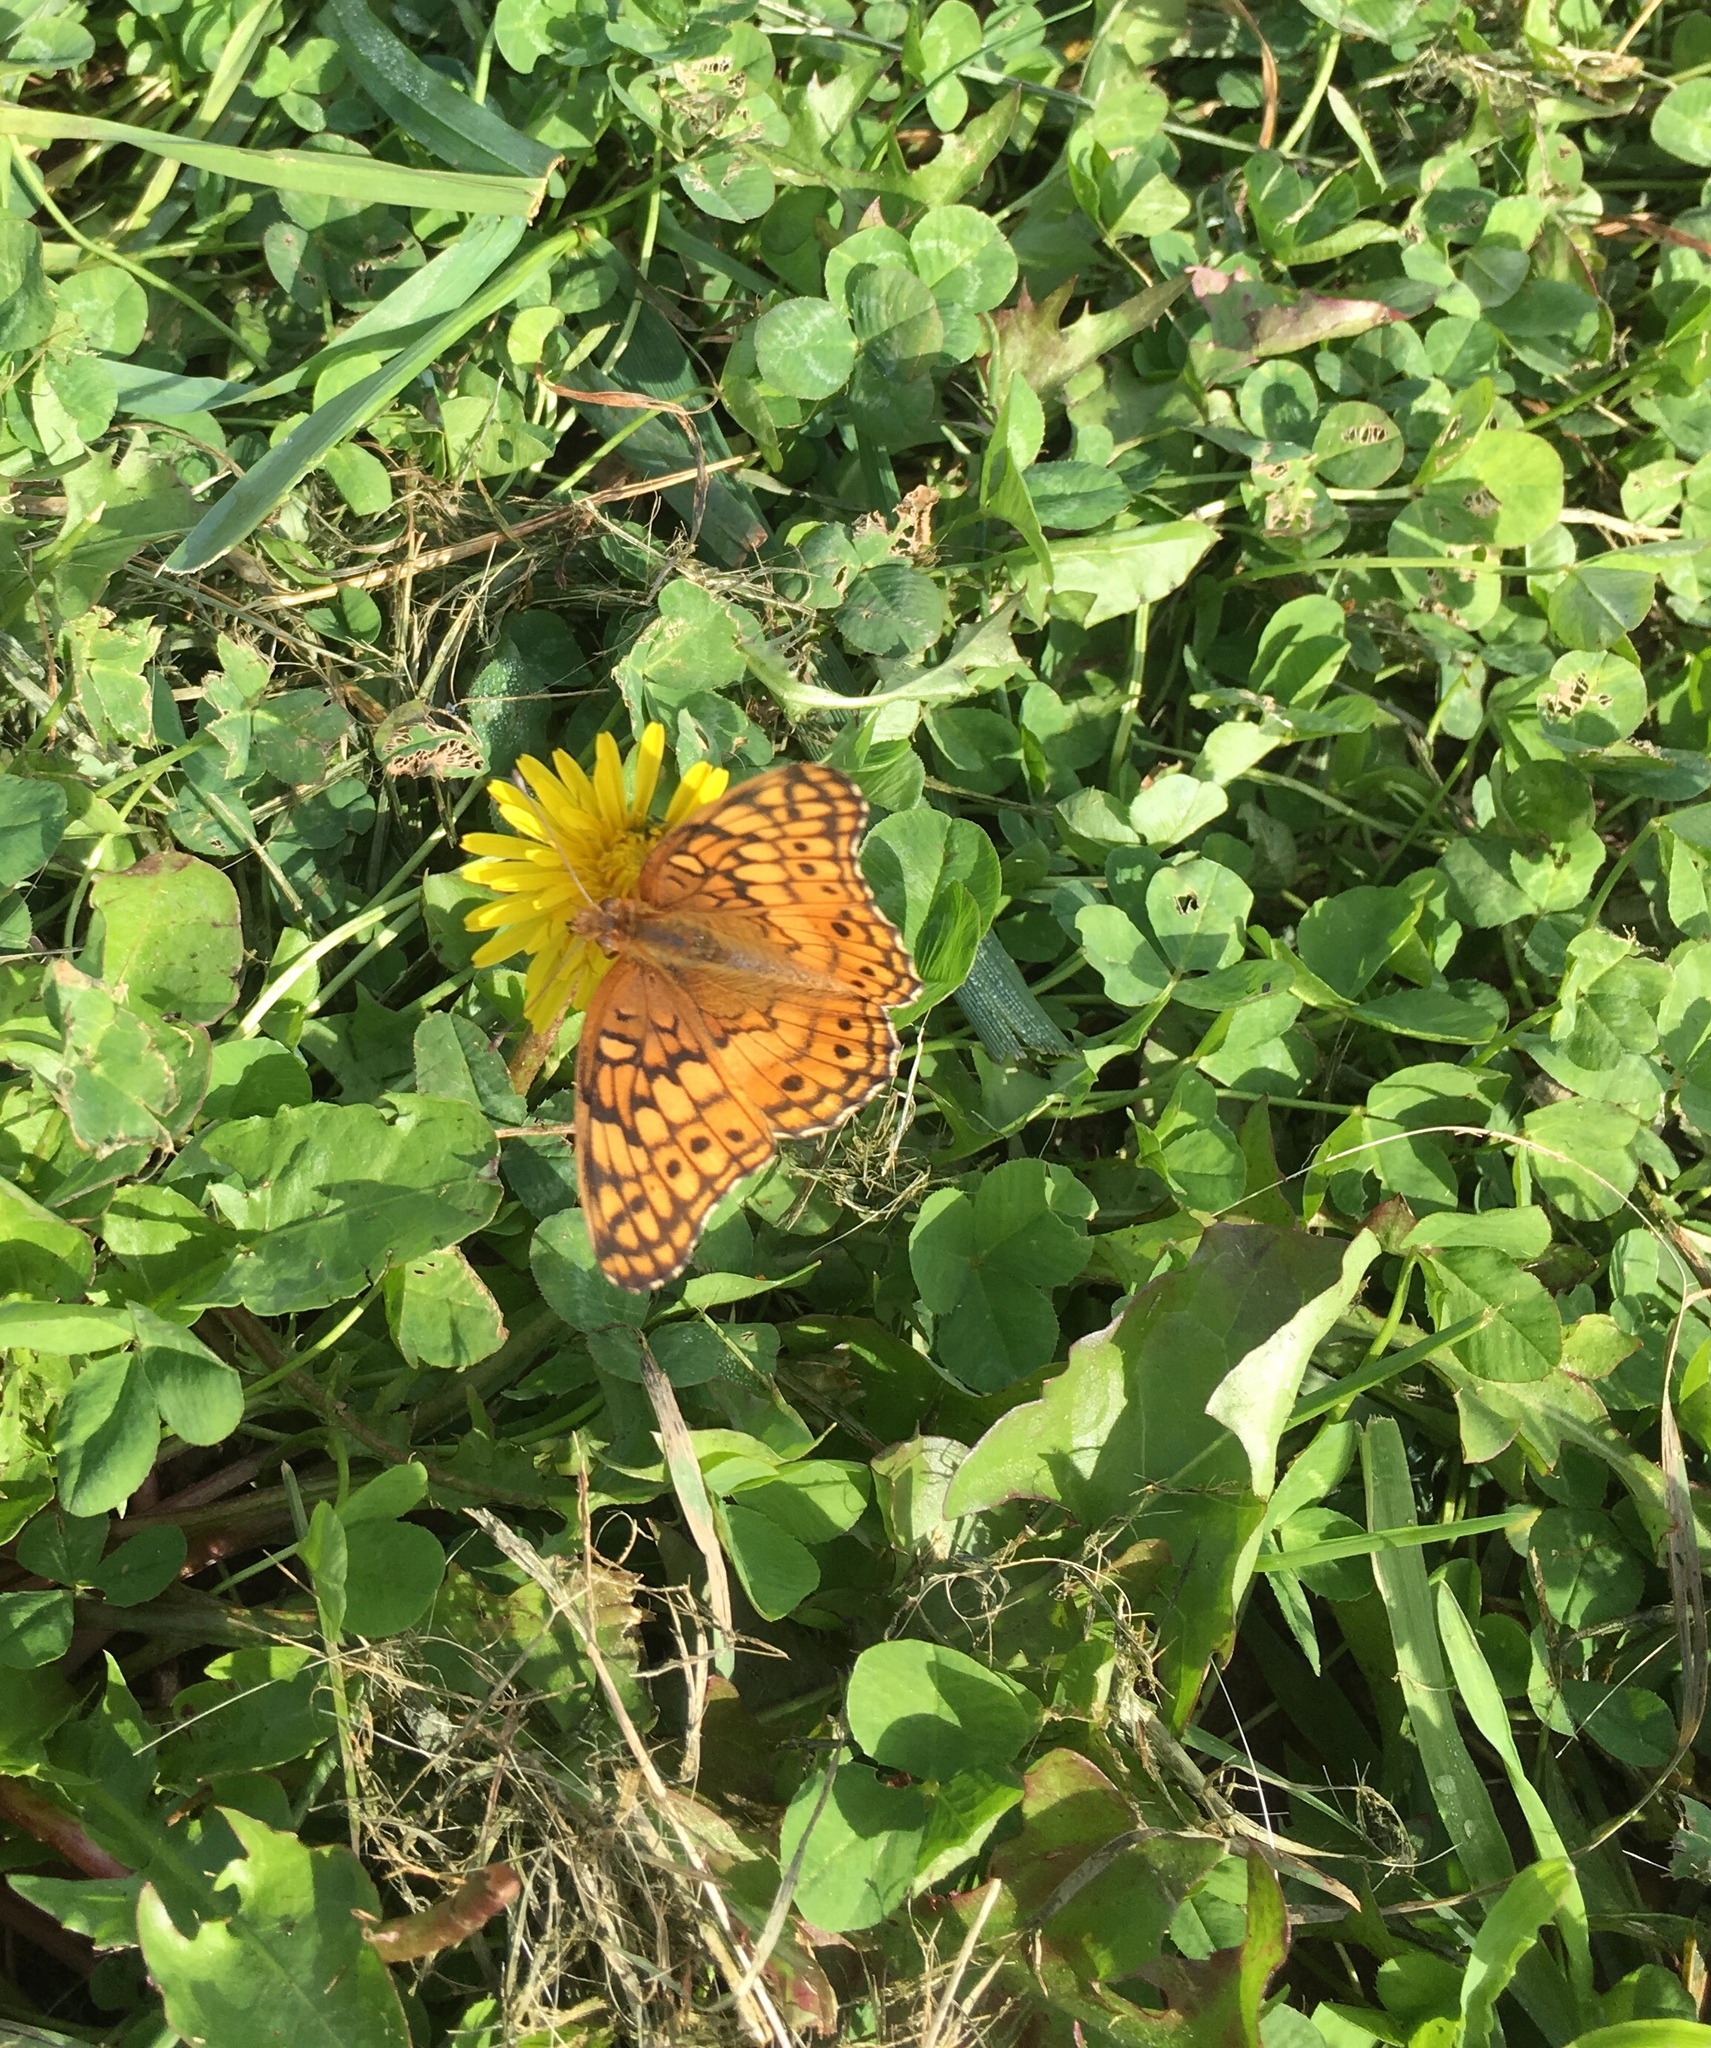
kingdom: Animalia
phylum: Arthropoda
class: Insecta
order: Lepidoptera
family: Nymphalidae
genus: Euptoieta
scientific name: Euptoieta claudia
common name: Variegated fritillary
